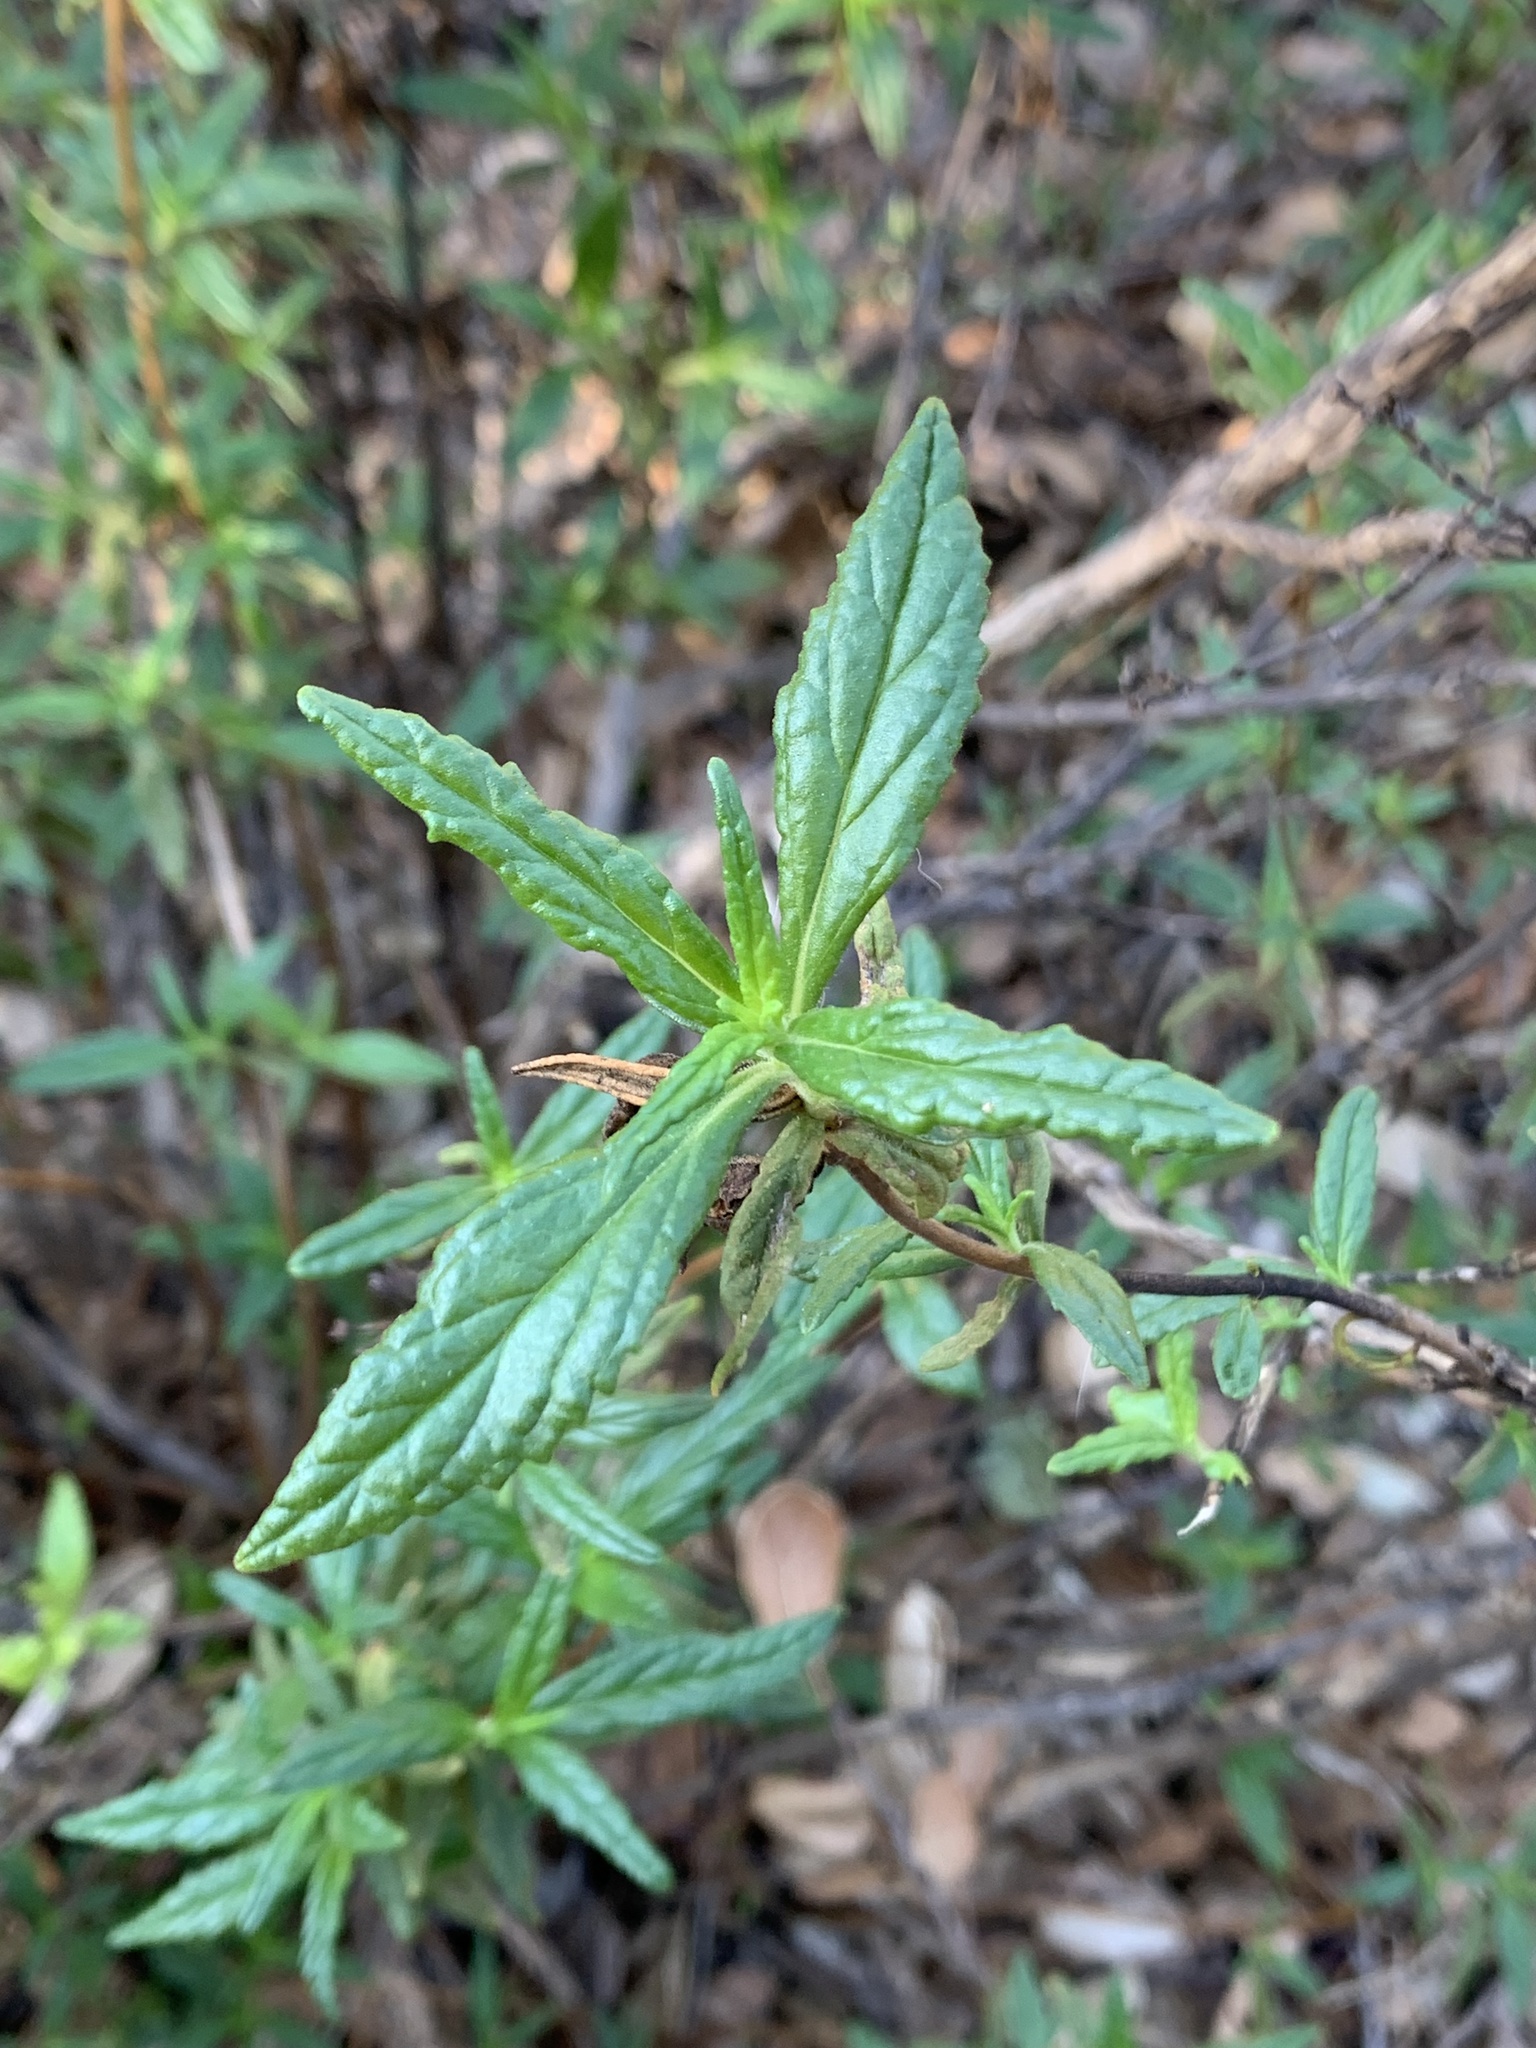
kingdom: Plantae
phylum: Tracheophyta
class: Magnoliopsida
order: Lamiales
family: Phrymaceae
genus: Diplacus
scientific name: Diplacus
